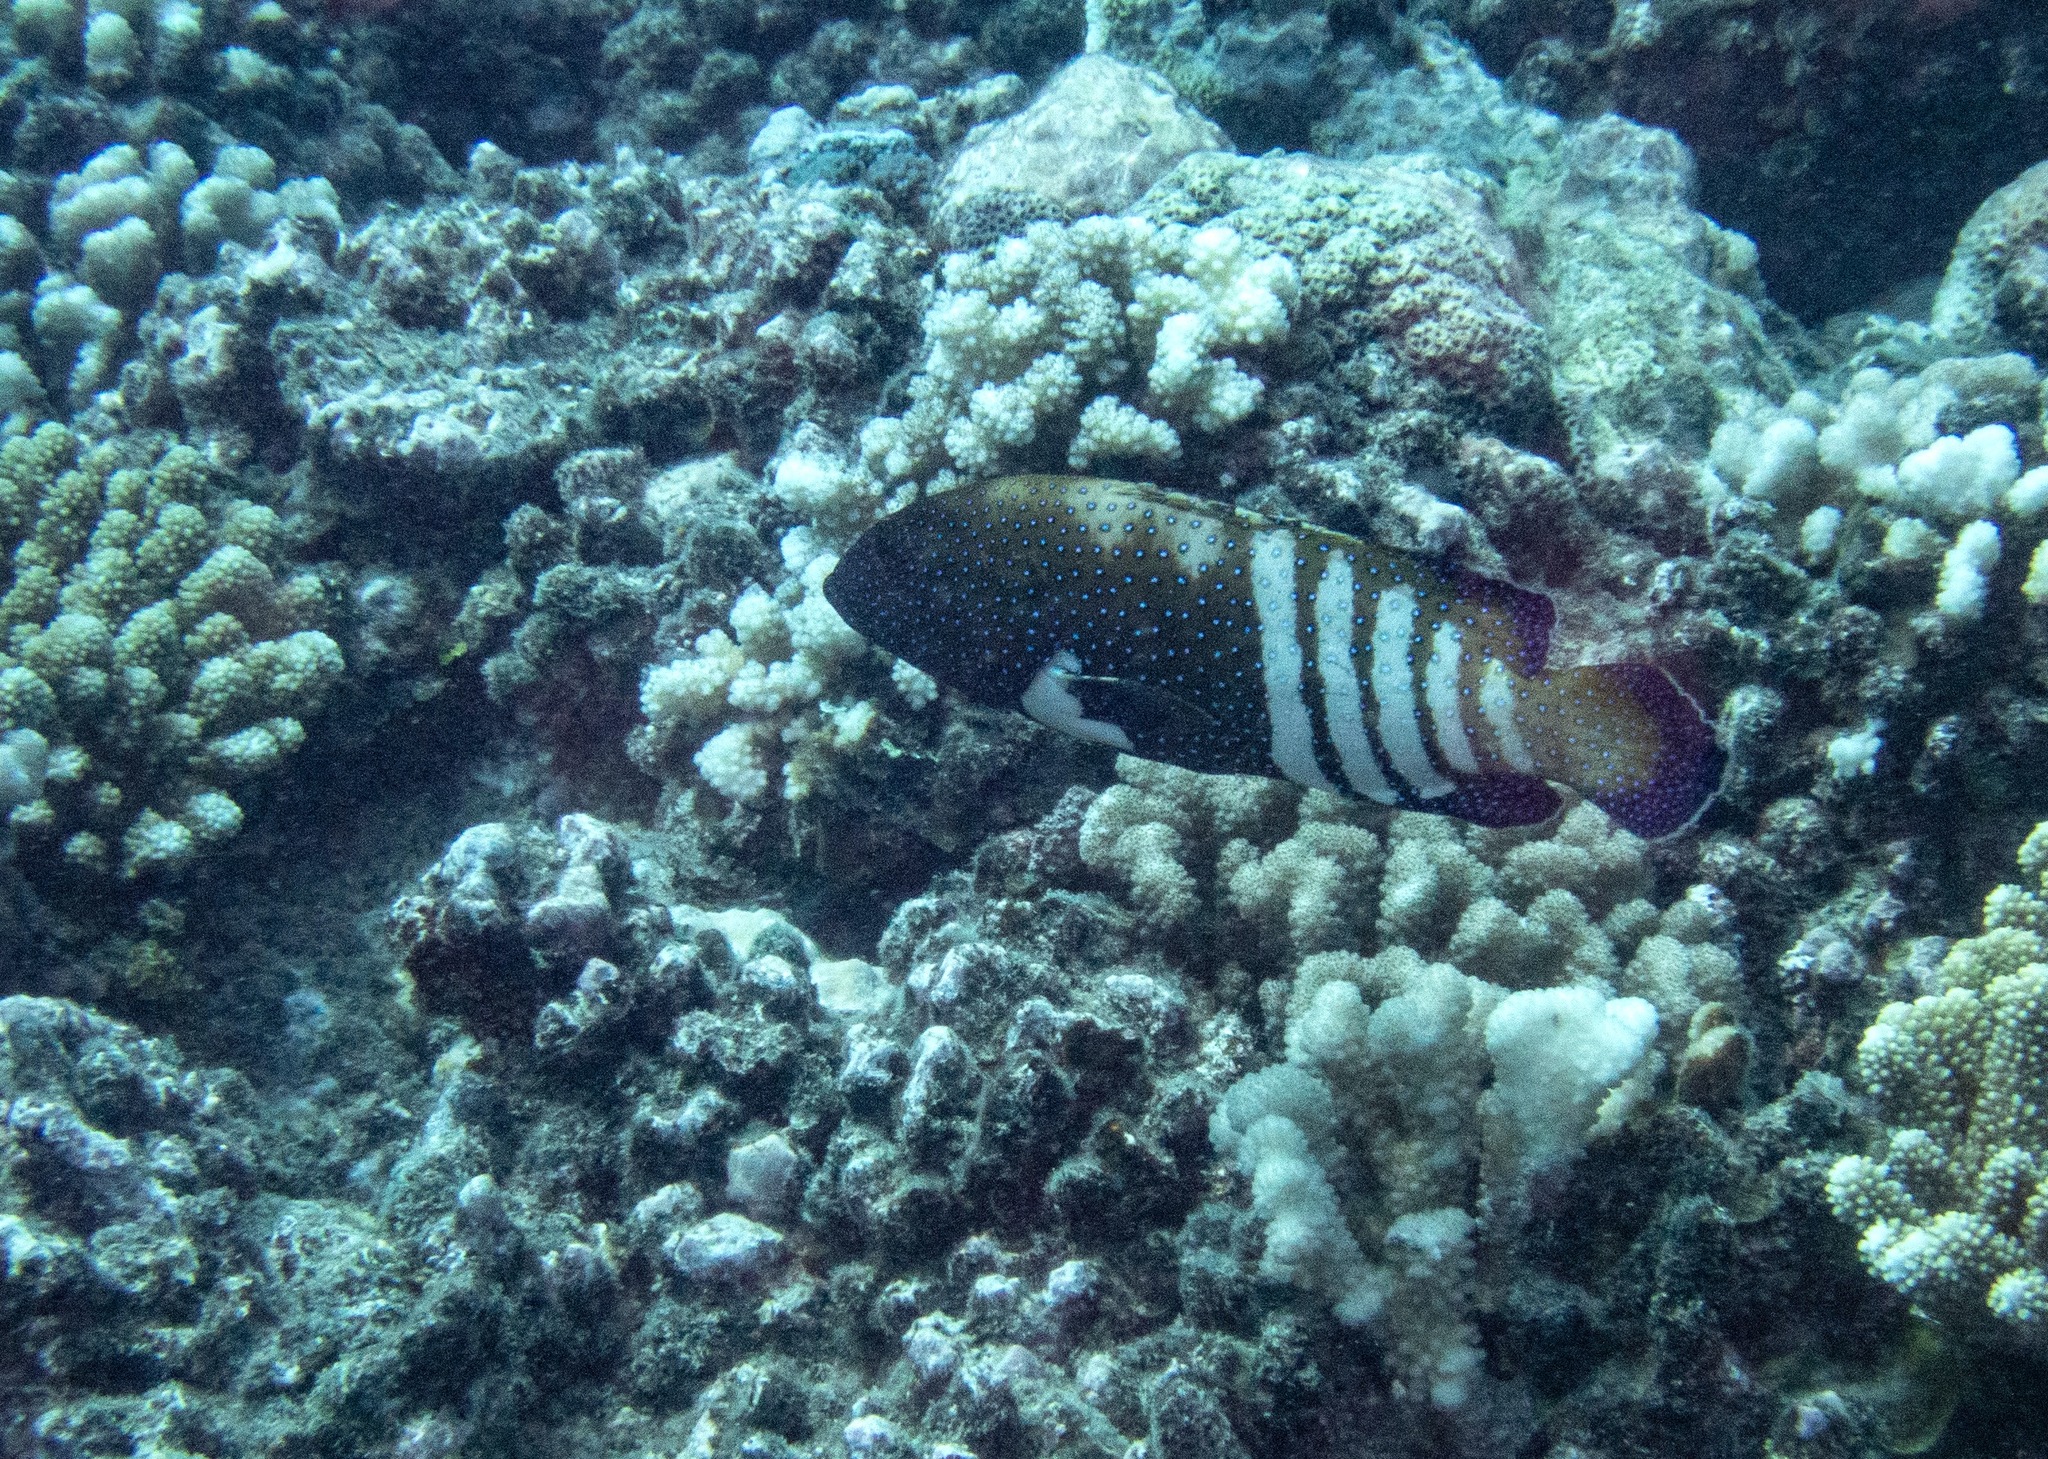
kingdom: Animalia
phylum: Chordata
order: Perciformes
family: Serranidae
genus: Cephalopholis
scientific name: Cephalopholis argus
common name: Peacock grouper
